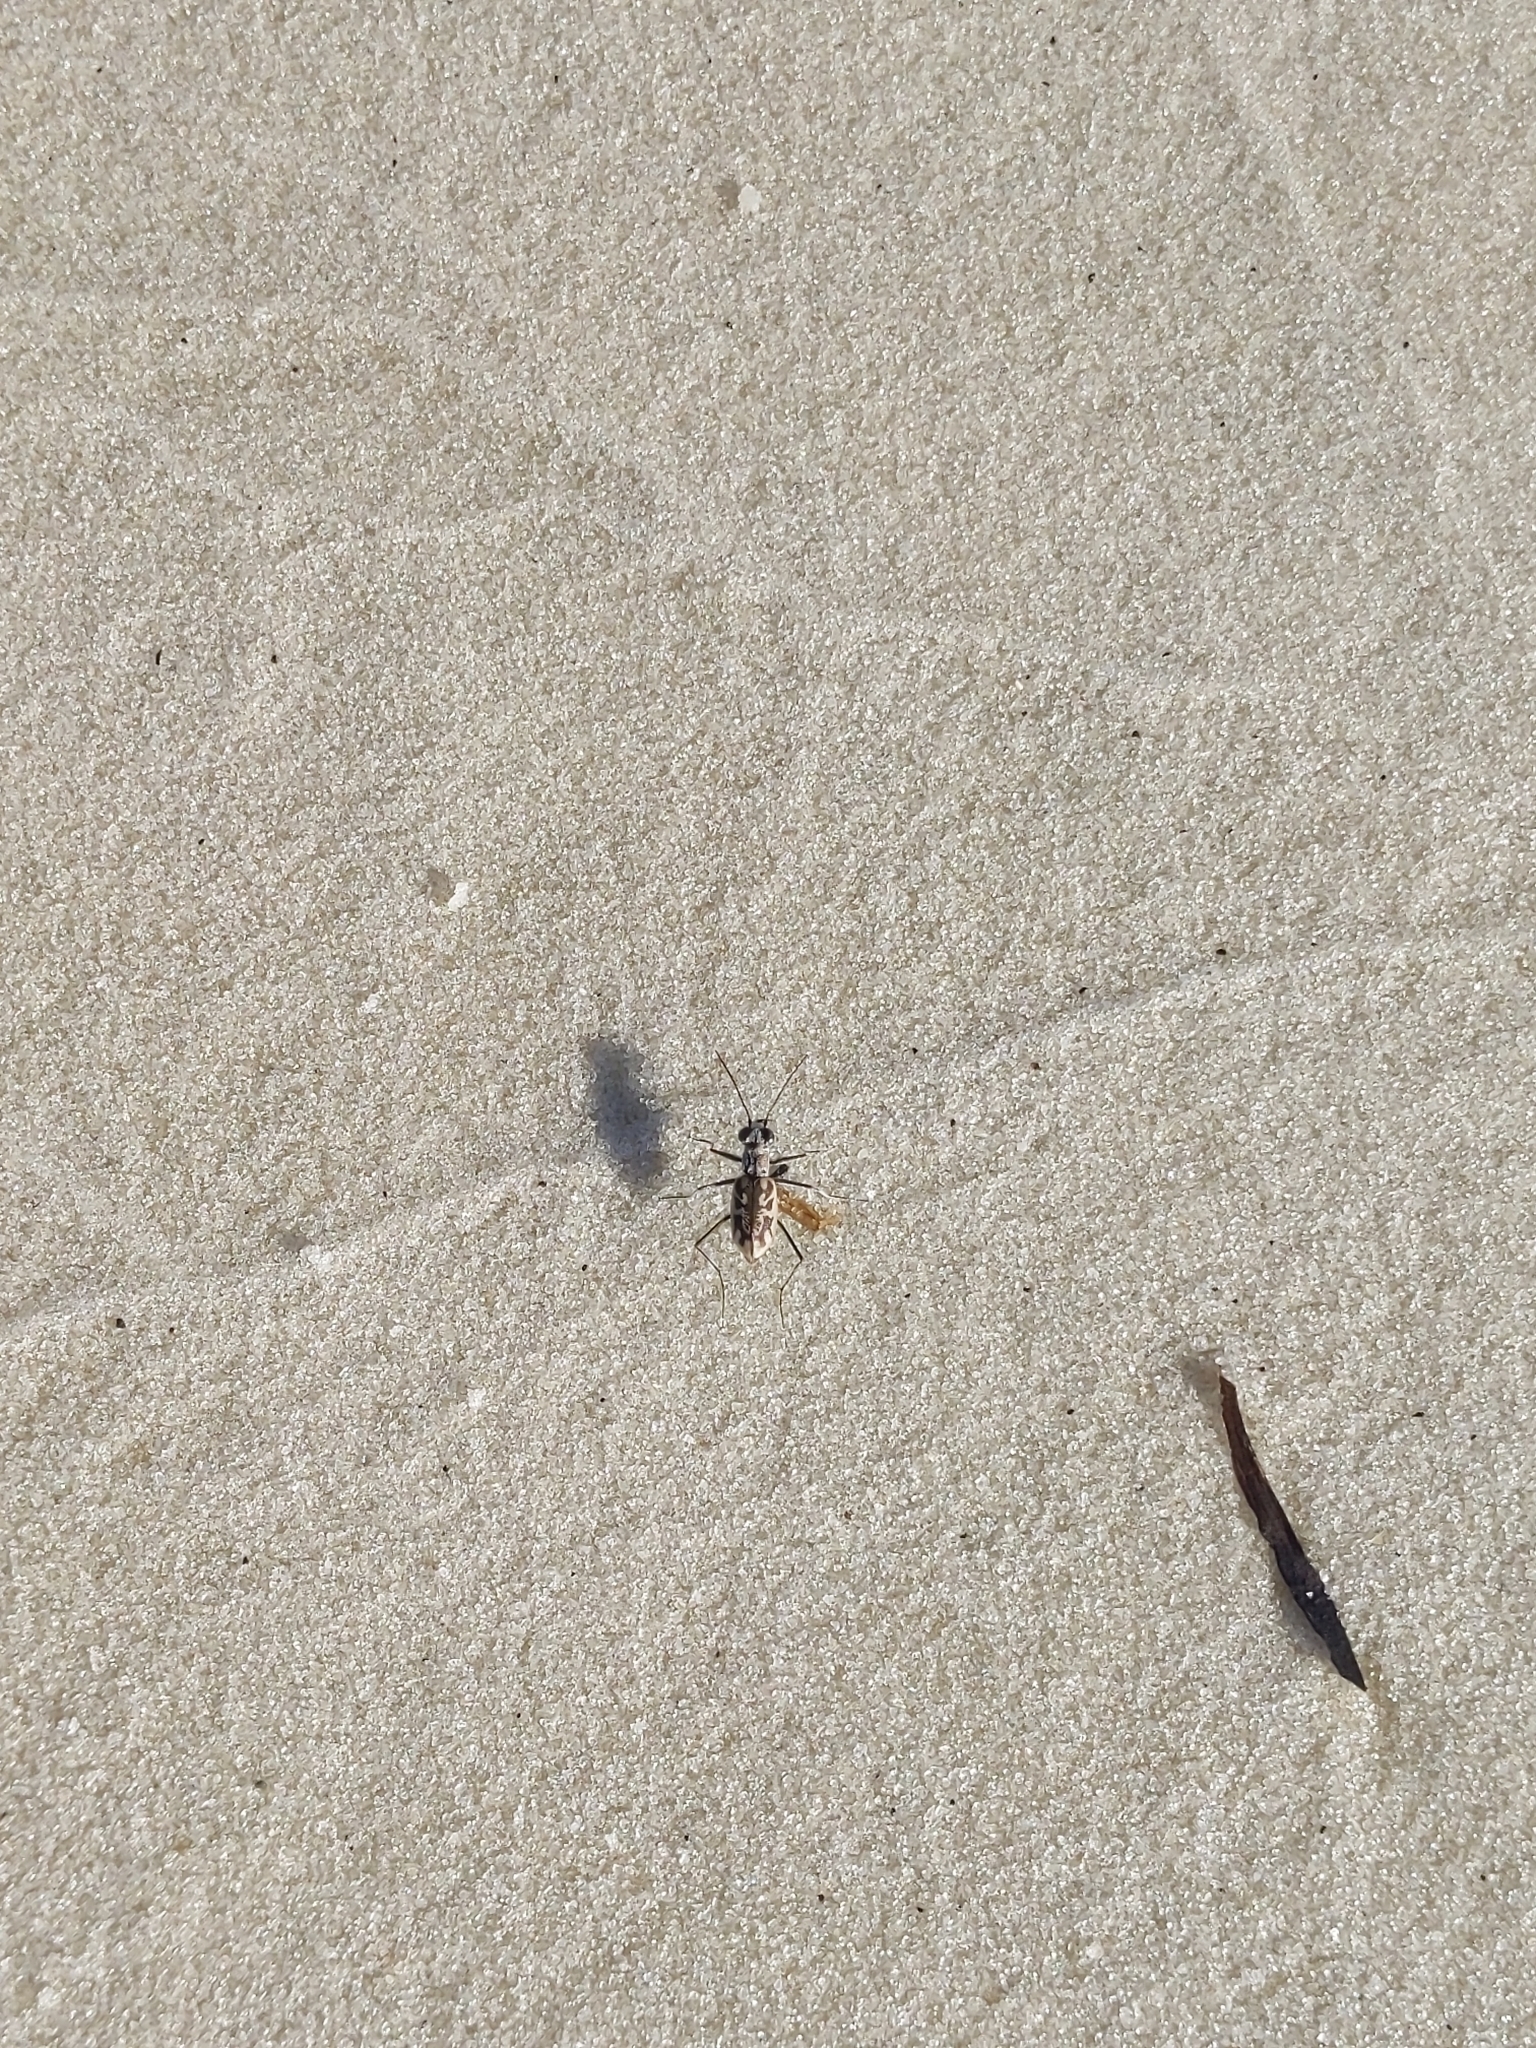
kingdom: Animalia
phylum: Arthropoda
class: Insecta
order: Coleoptera
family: Carabidae
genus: Ellipsoptera
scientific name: Ellipsoptera hamata
